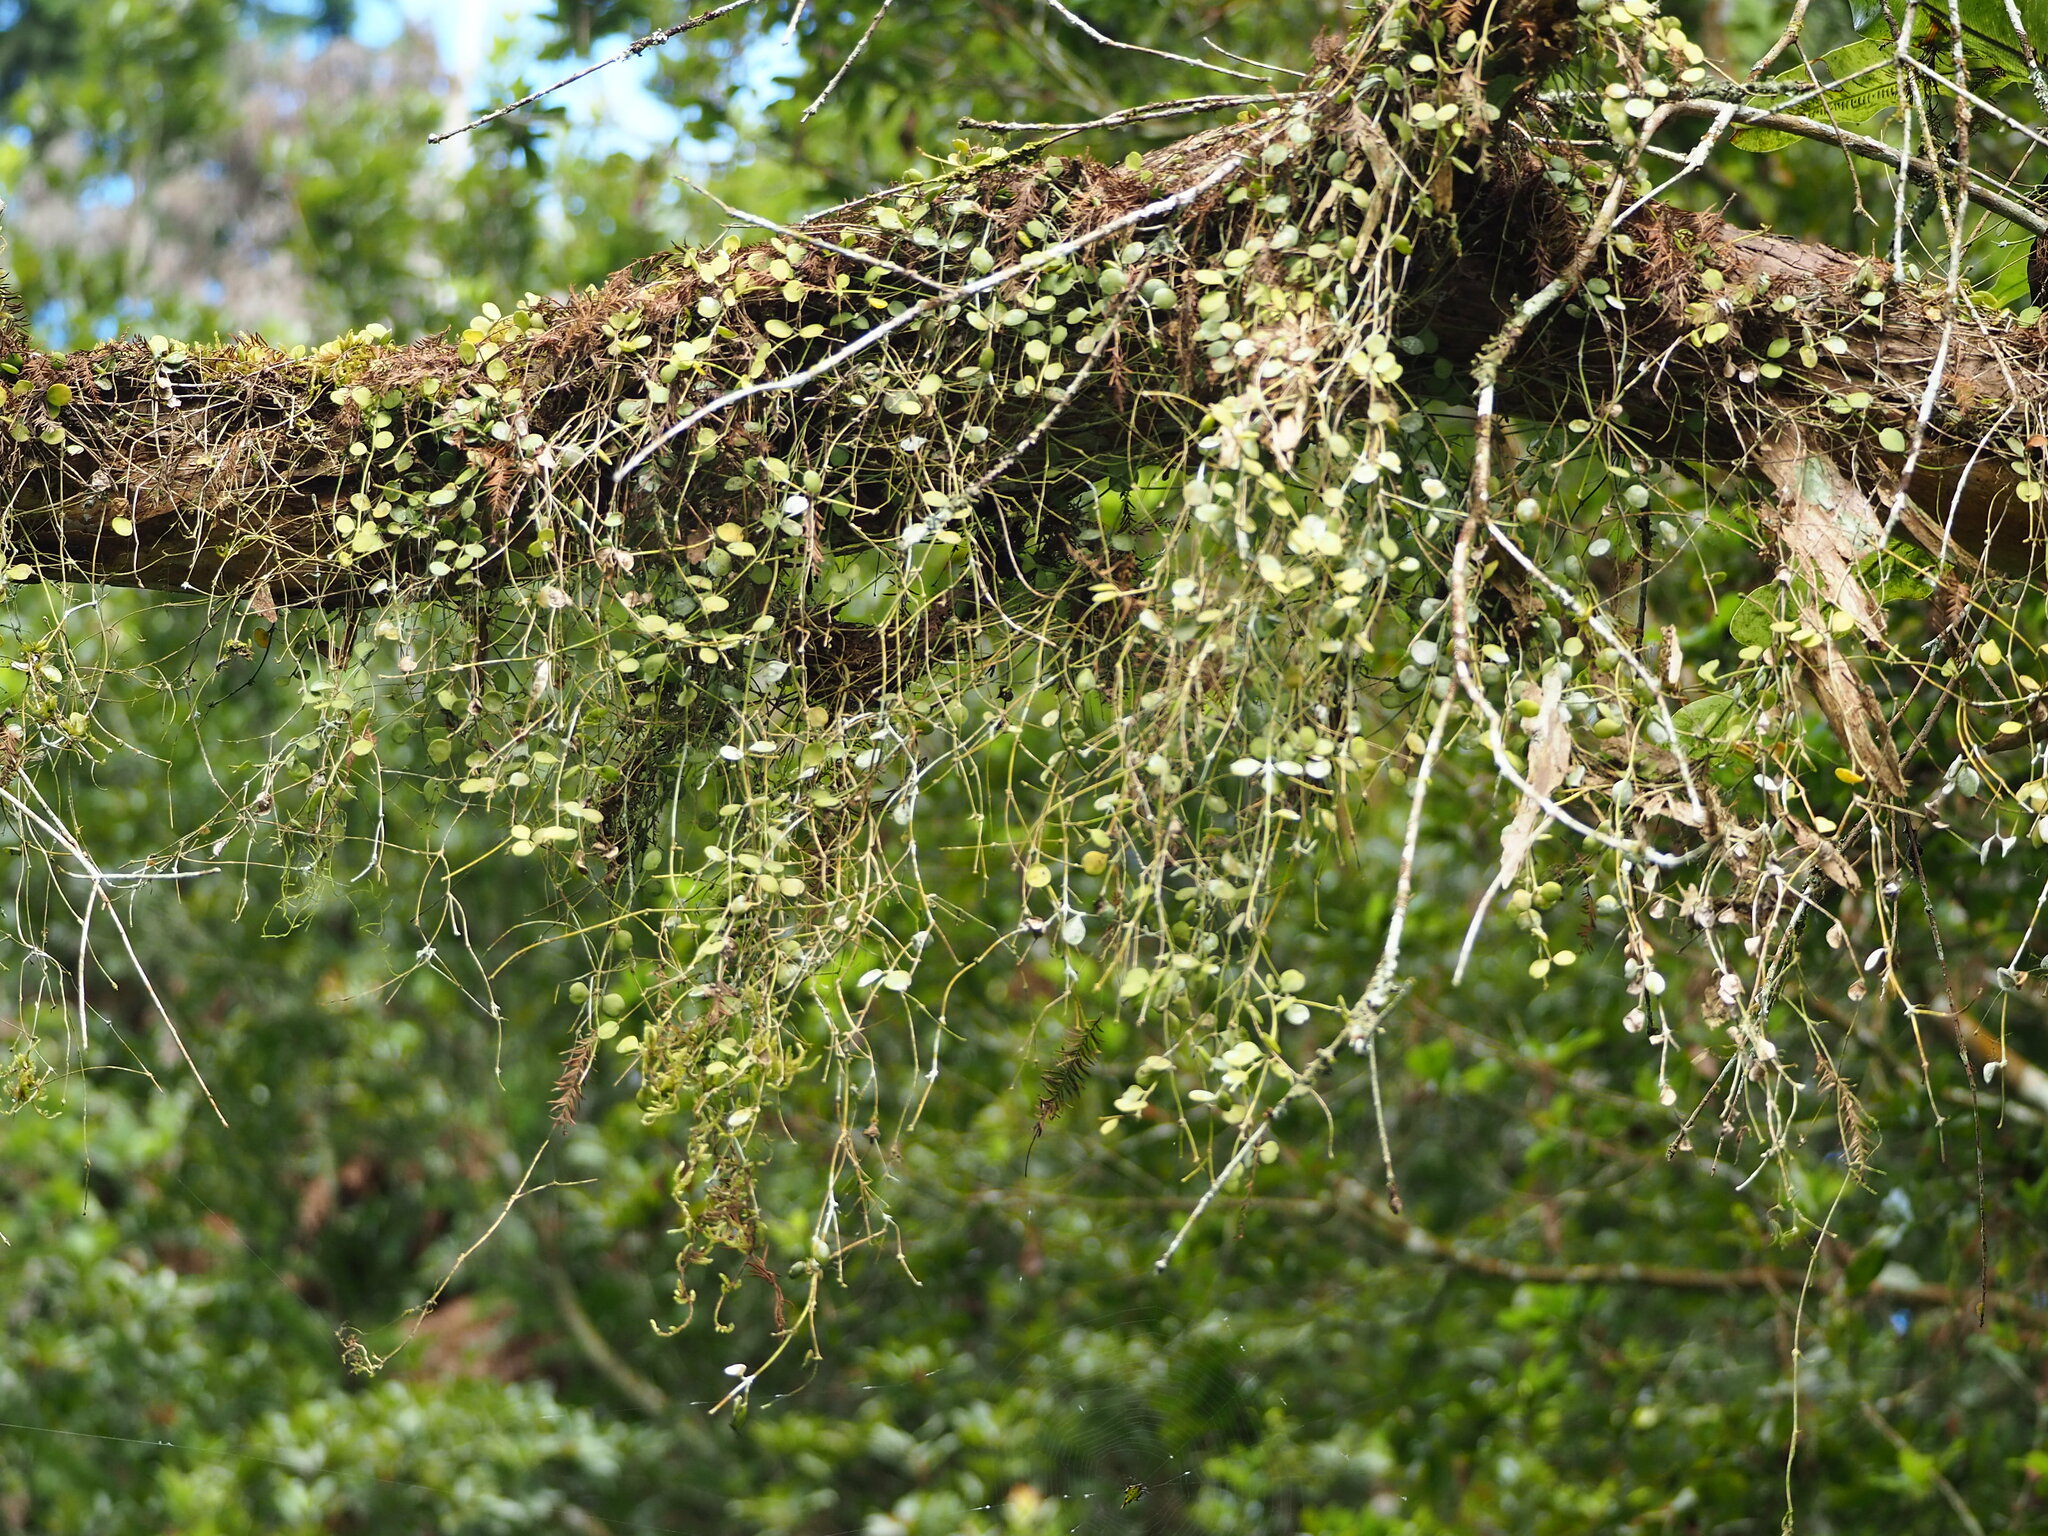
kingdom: Plantae
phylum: Tracheophyta
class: Magnoliopsida
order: Gentianales
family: Apocynaceae
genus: Dischidia
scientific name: Dischidia formosana
